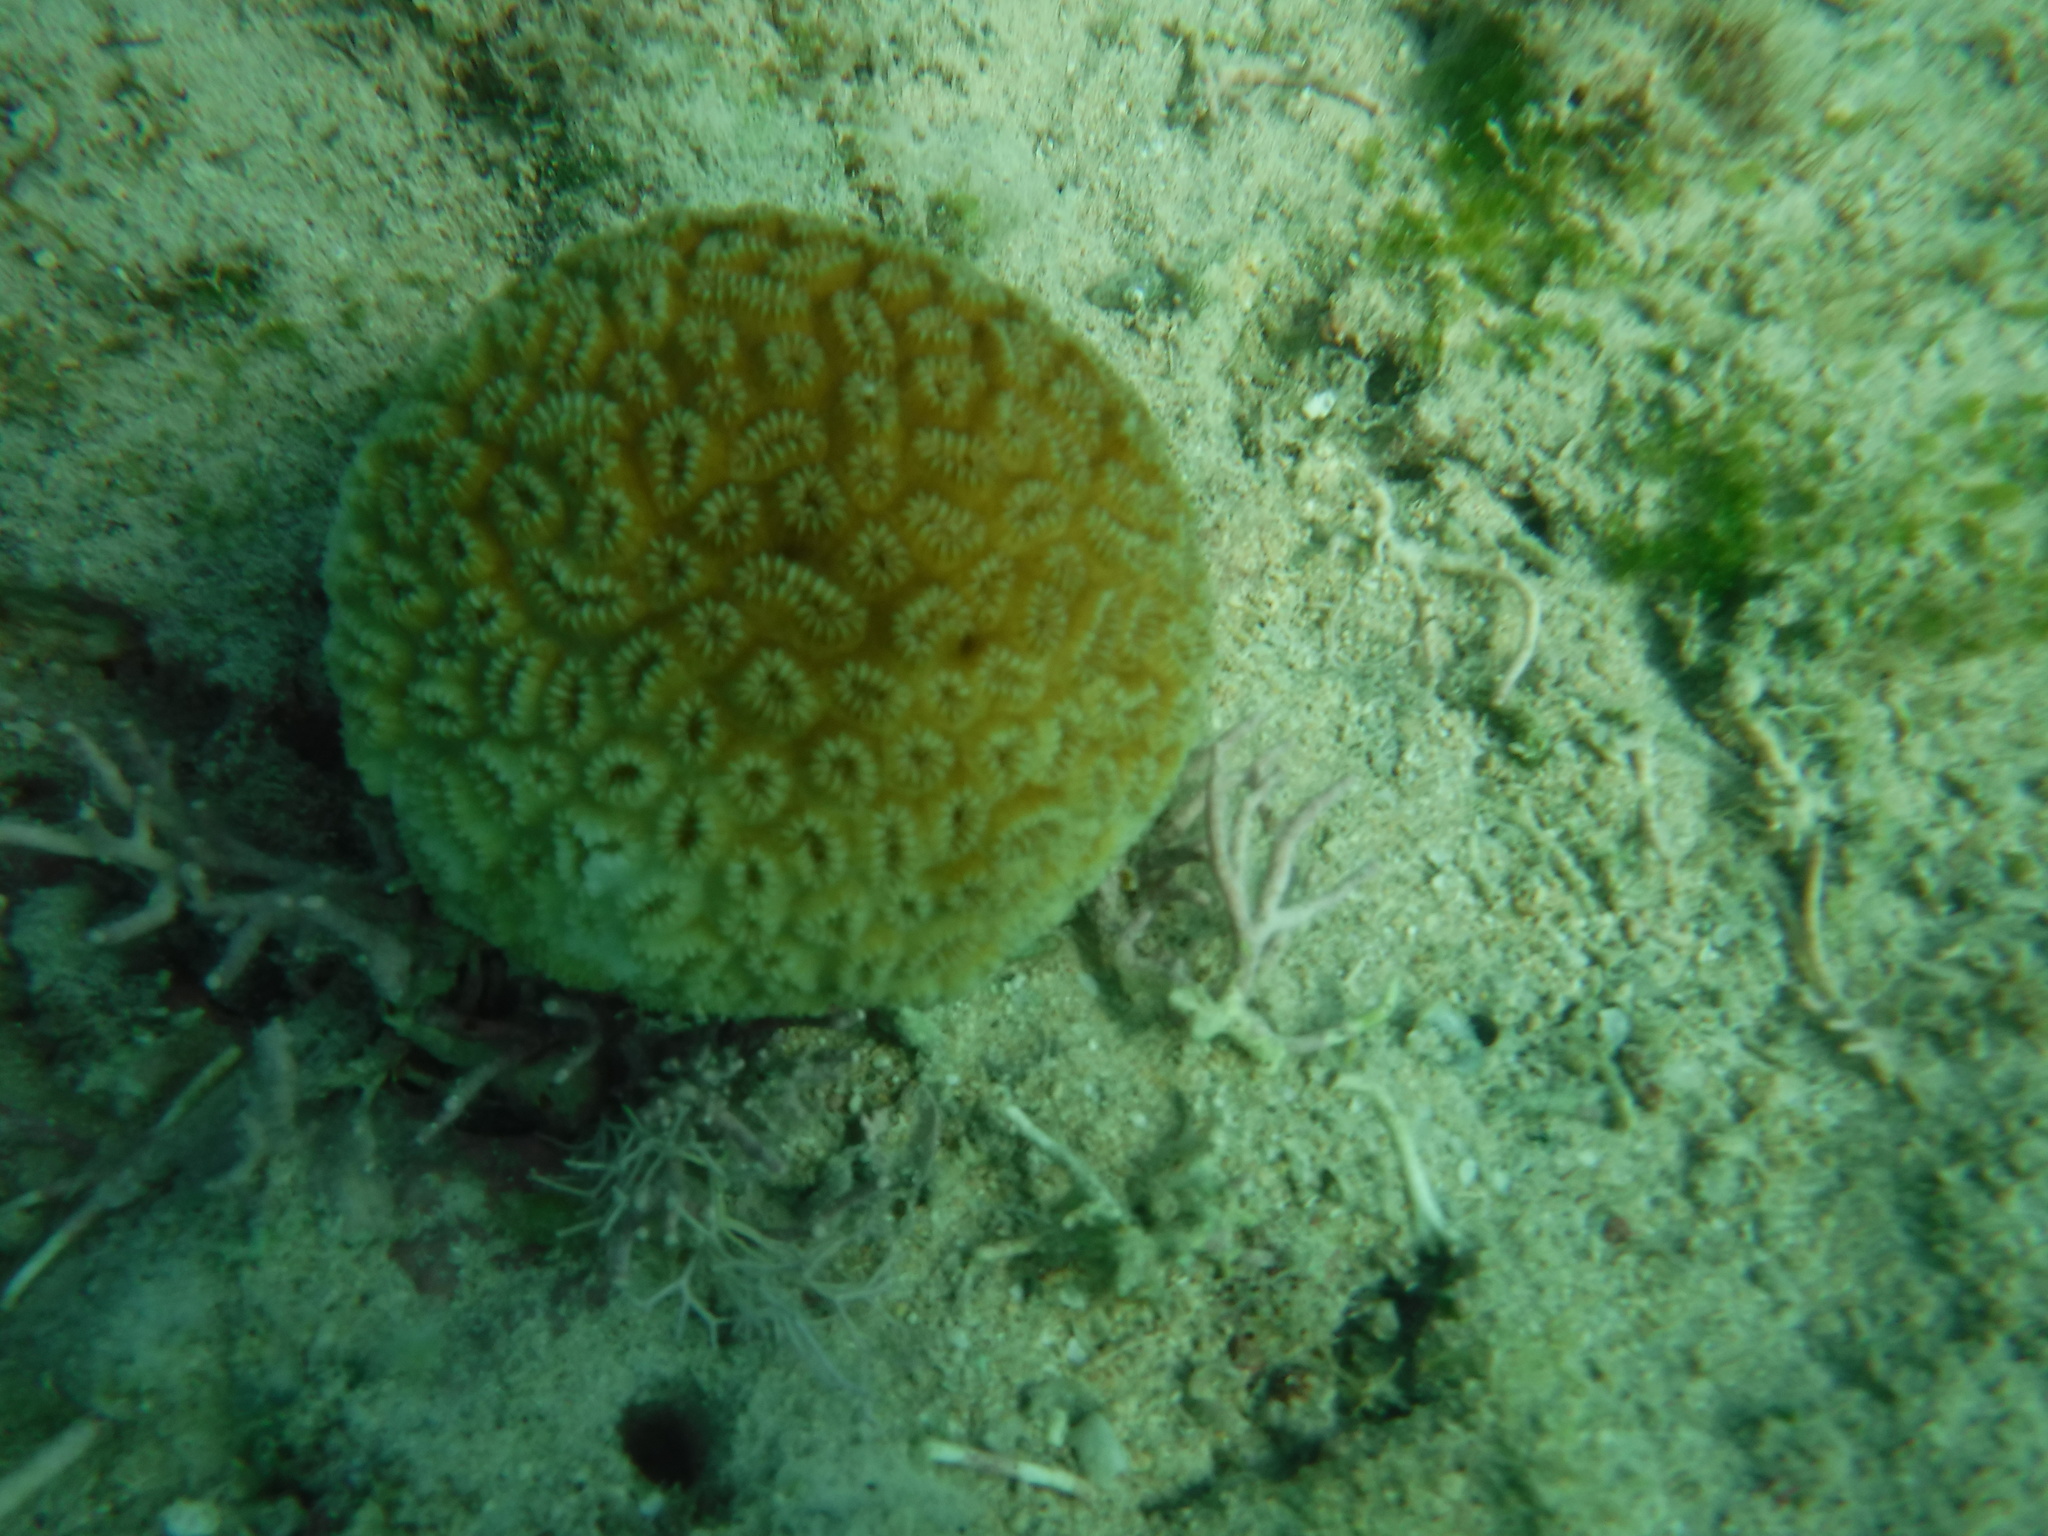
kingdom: Animalia
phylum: Cnidaria
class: Anthozoa
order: Scleractinia
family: Meandrinidae
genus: Dichocoenia
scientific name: Dichocoenia stokesii
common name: Pineapple coral
